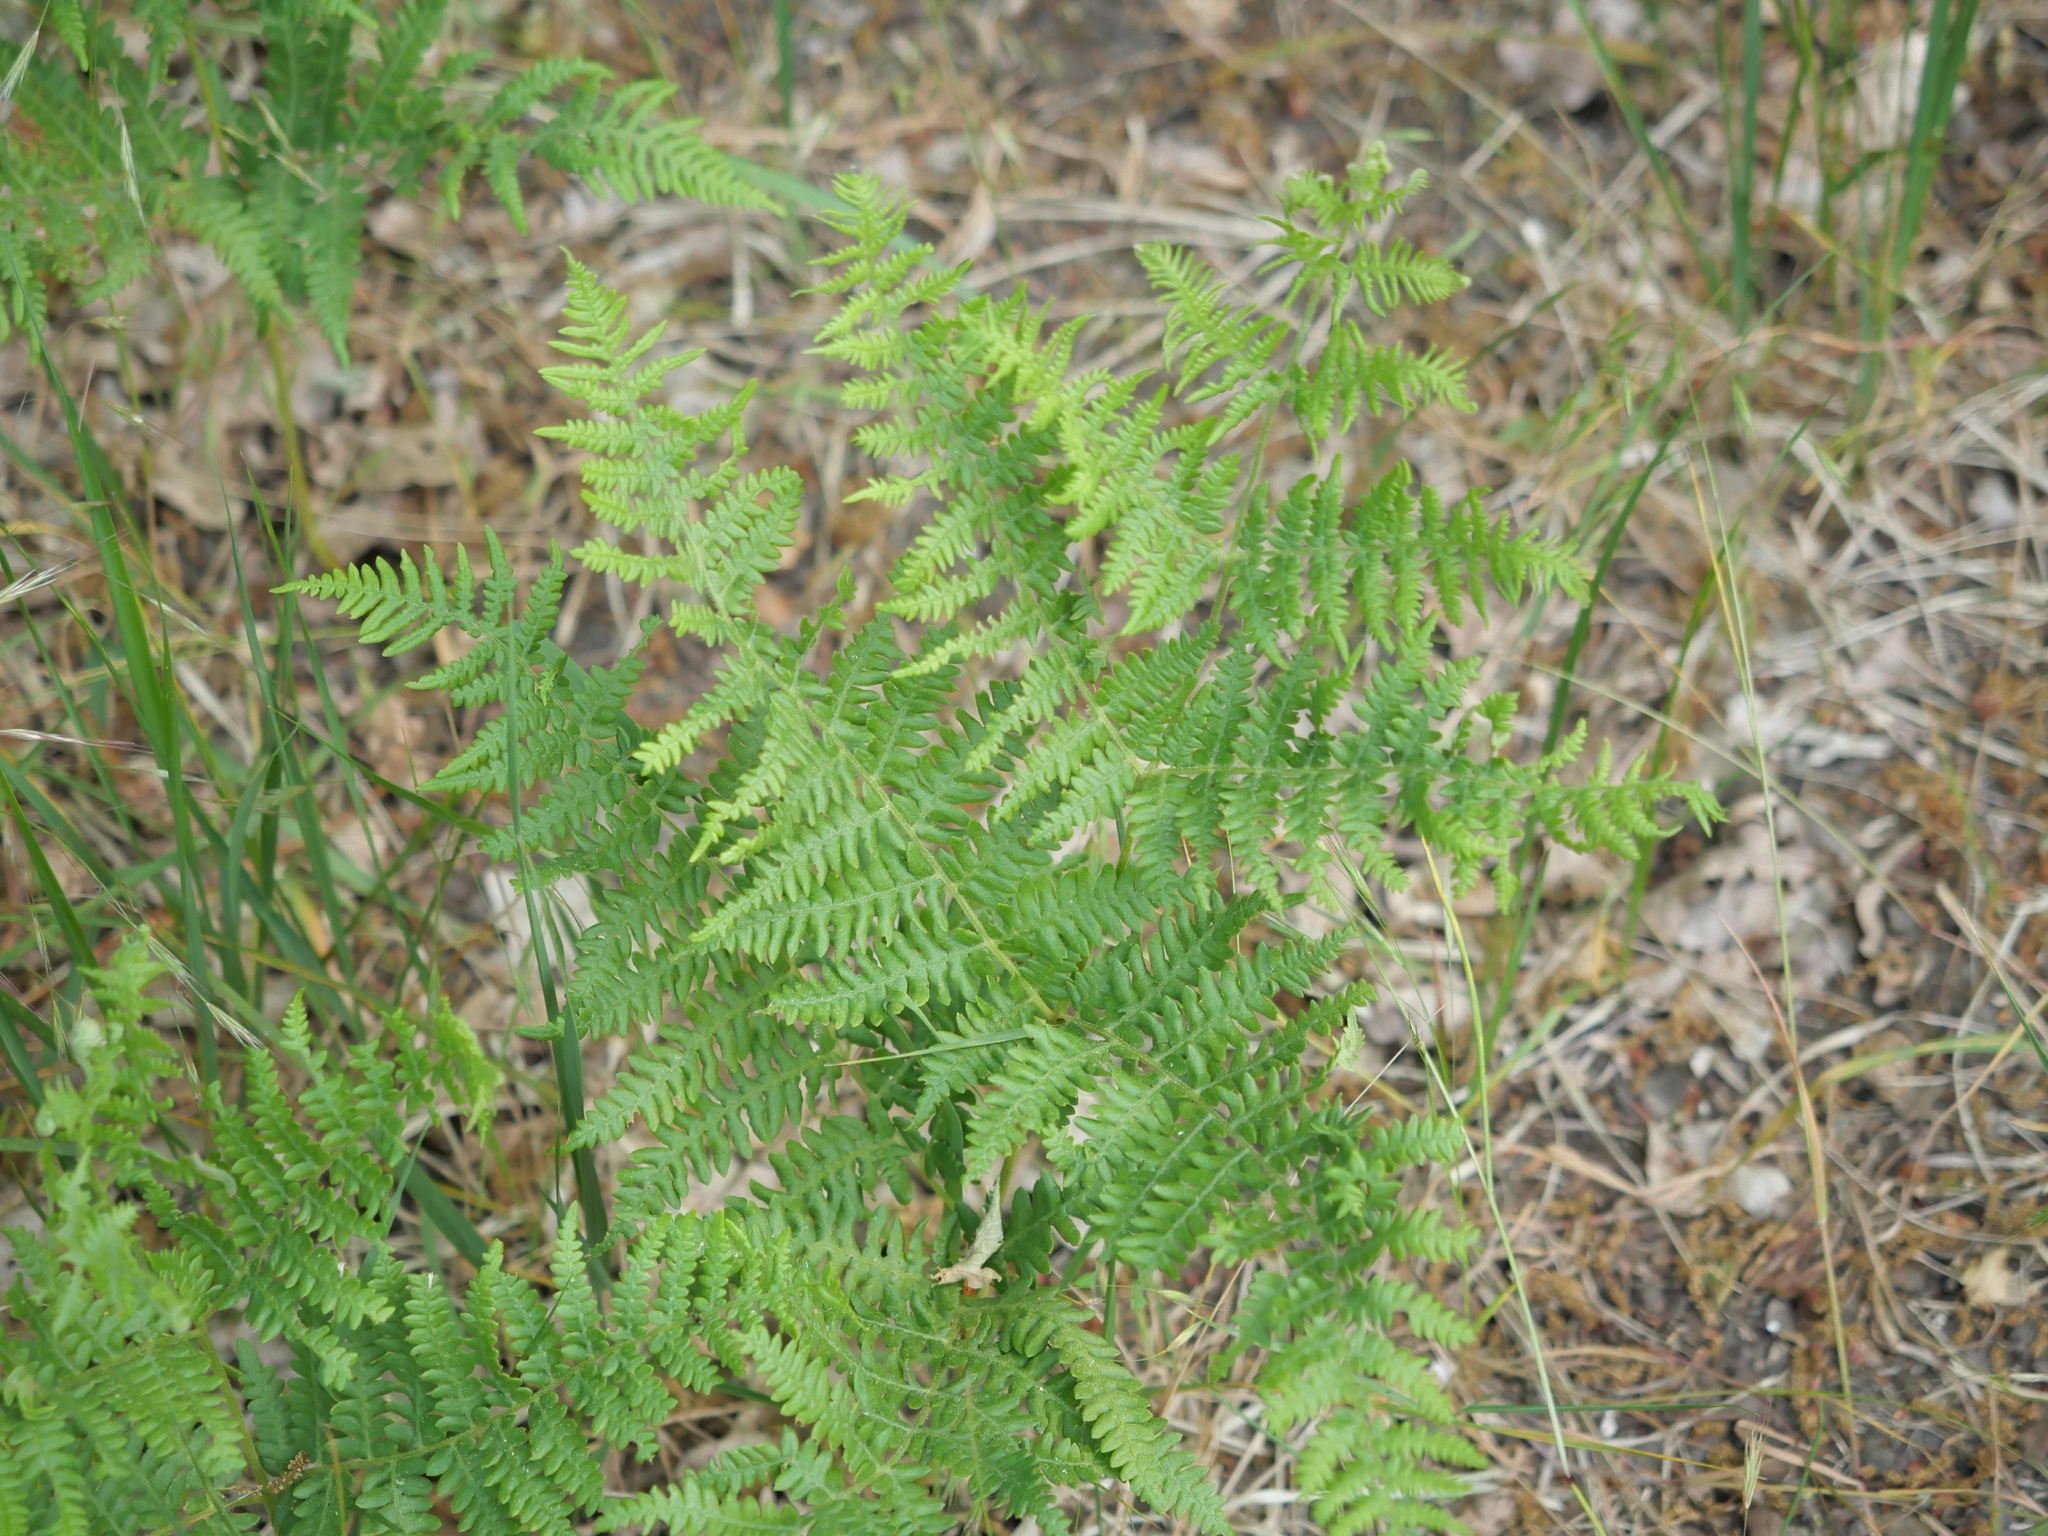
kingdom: Plantae
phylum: Tracheophyta
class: Polypodiopsida
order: Polypodiales
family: Dennstaedtiaceae
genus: Pteridium
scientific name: Pteridium aquilinum
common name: Bracken
